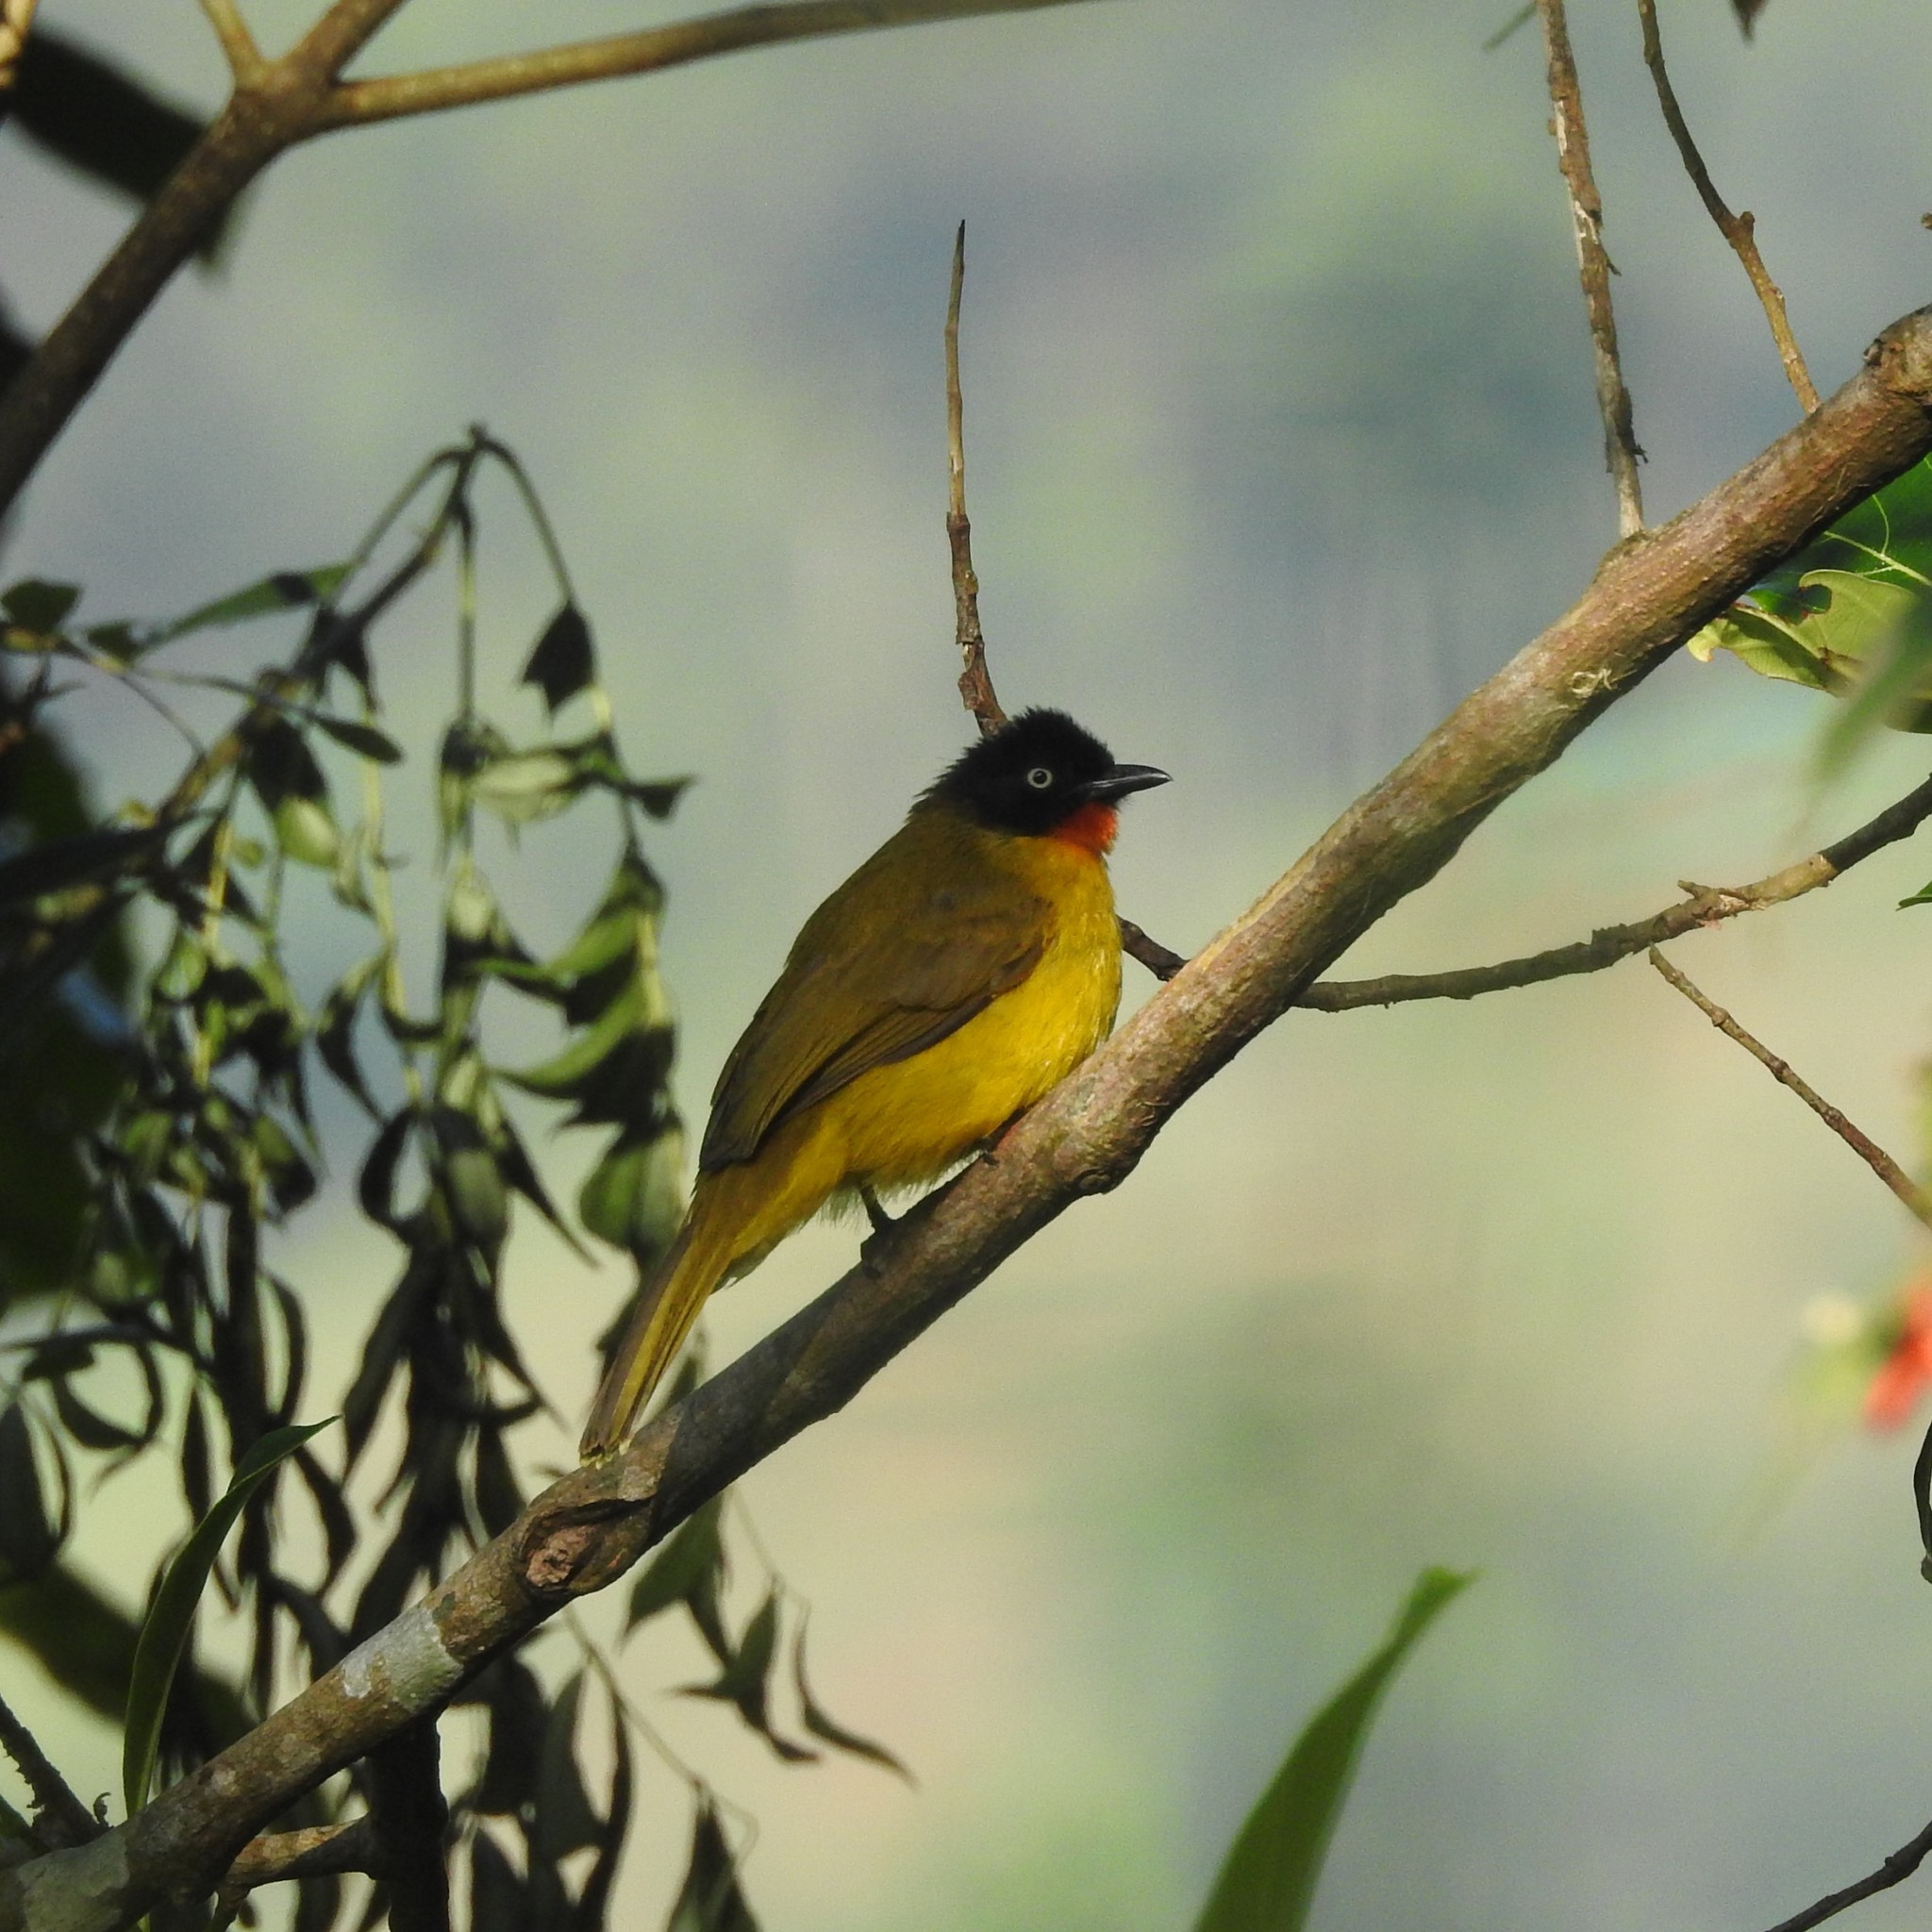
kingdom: Animalia
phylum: Chordata
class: Aves
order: Passeriformes
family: Pycnonotidae
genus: Pycnonotus
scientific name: Pycnonotus gularis
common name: Flame-throated bulbul
